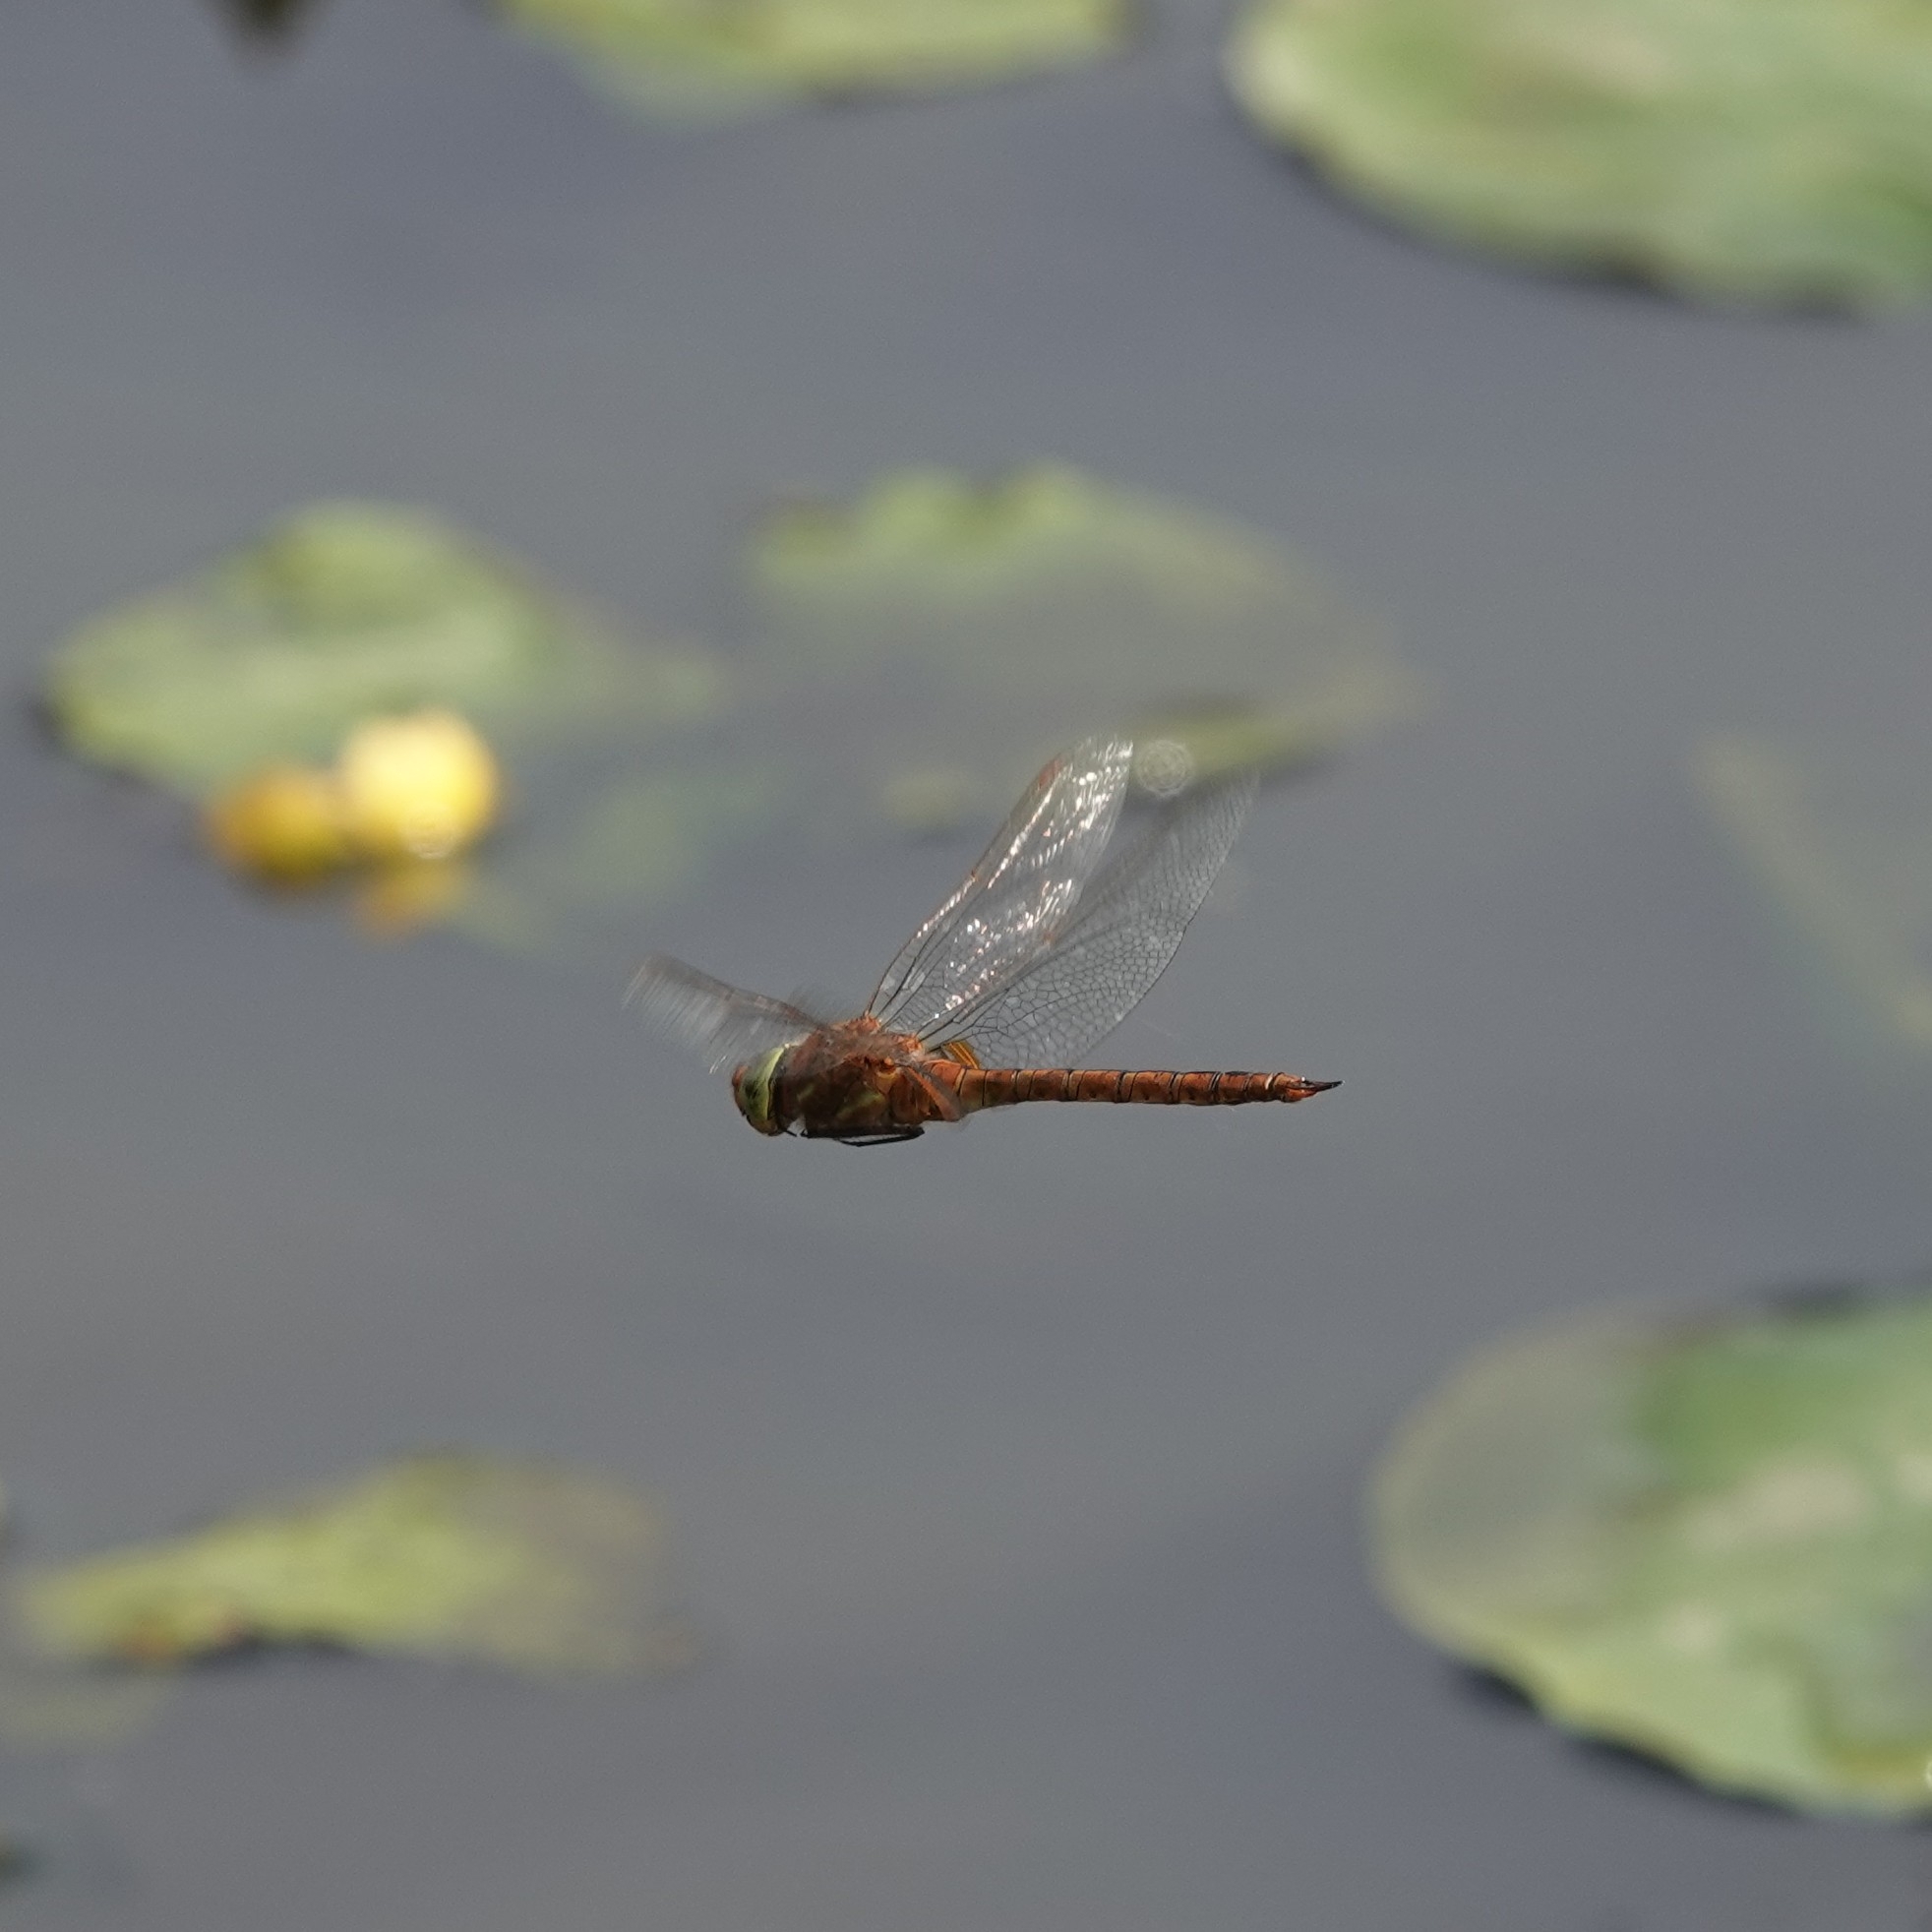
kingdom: Animalia
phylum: Arthropoda
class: Insecta
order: Odonata
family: Aeshnidae
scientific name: Aeshnidae
